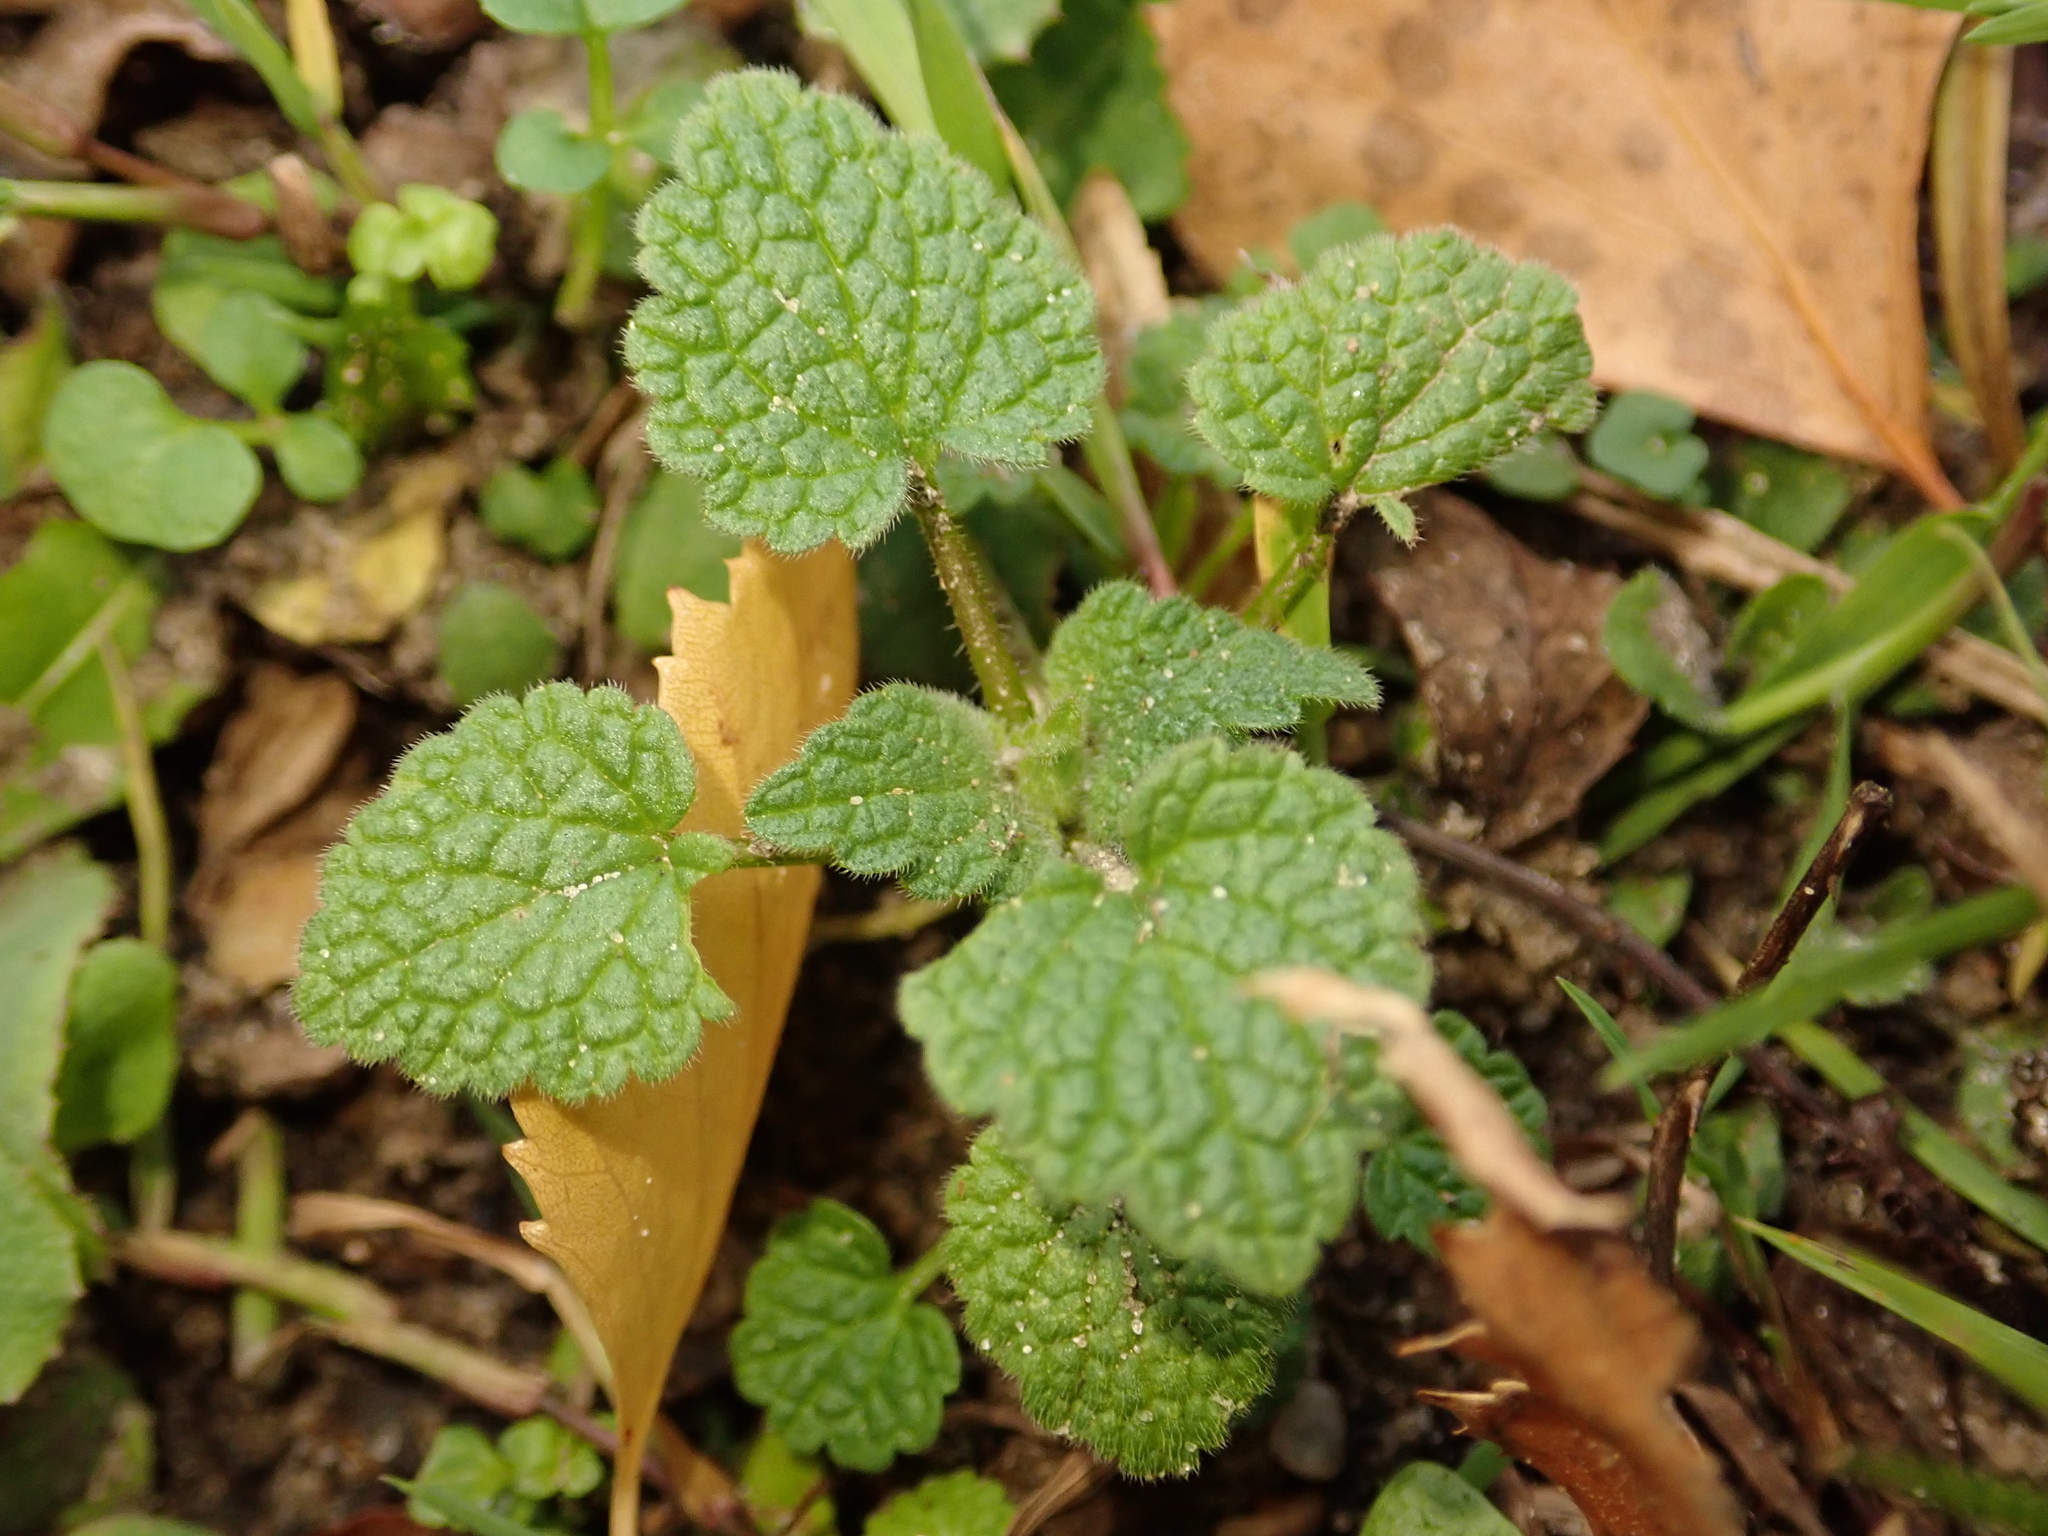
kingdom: Plantae
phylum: Tracheophyta
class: Magnoliopsida
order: Lamiales
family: Lamiaceae
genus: Lamium
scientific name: Lamium purpureum
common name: Red dead-nettle
